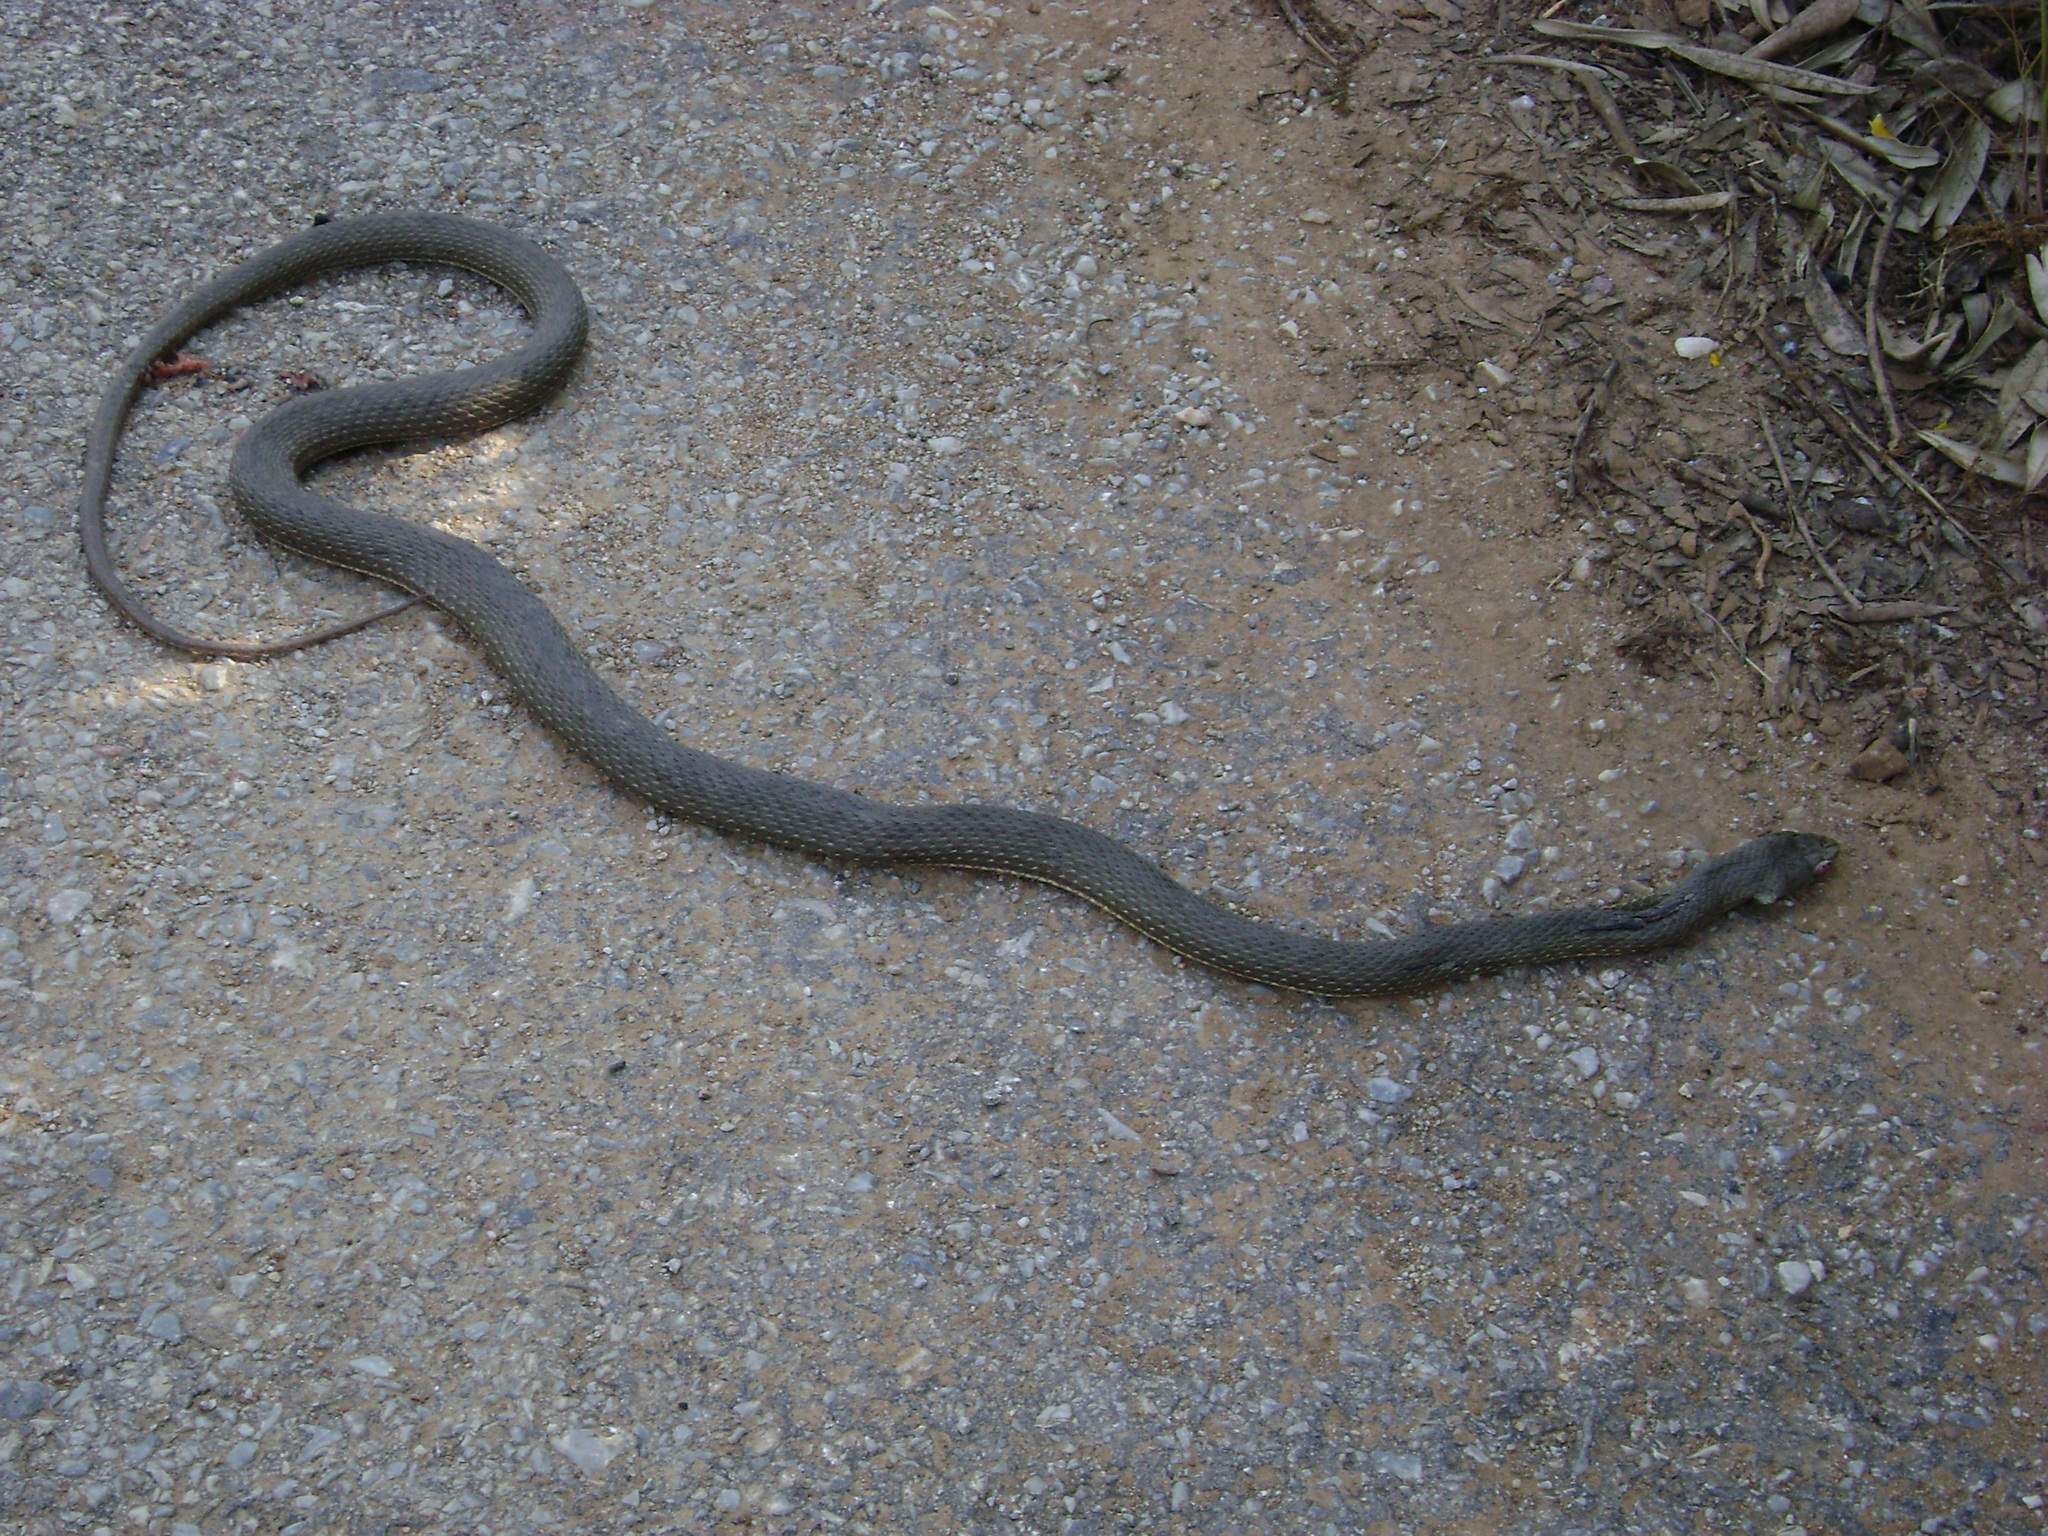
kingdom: Animalia
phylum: Chordata
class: Squamata
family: Psammophiidae
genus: Malpolon
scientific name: Malpolon insignitus
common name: Eastern montpellier snake
